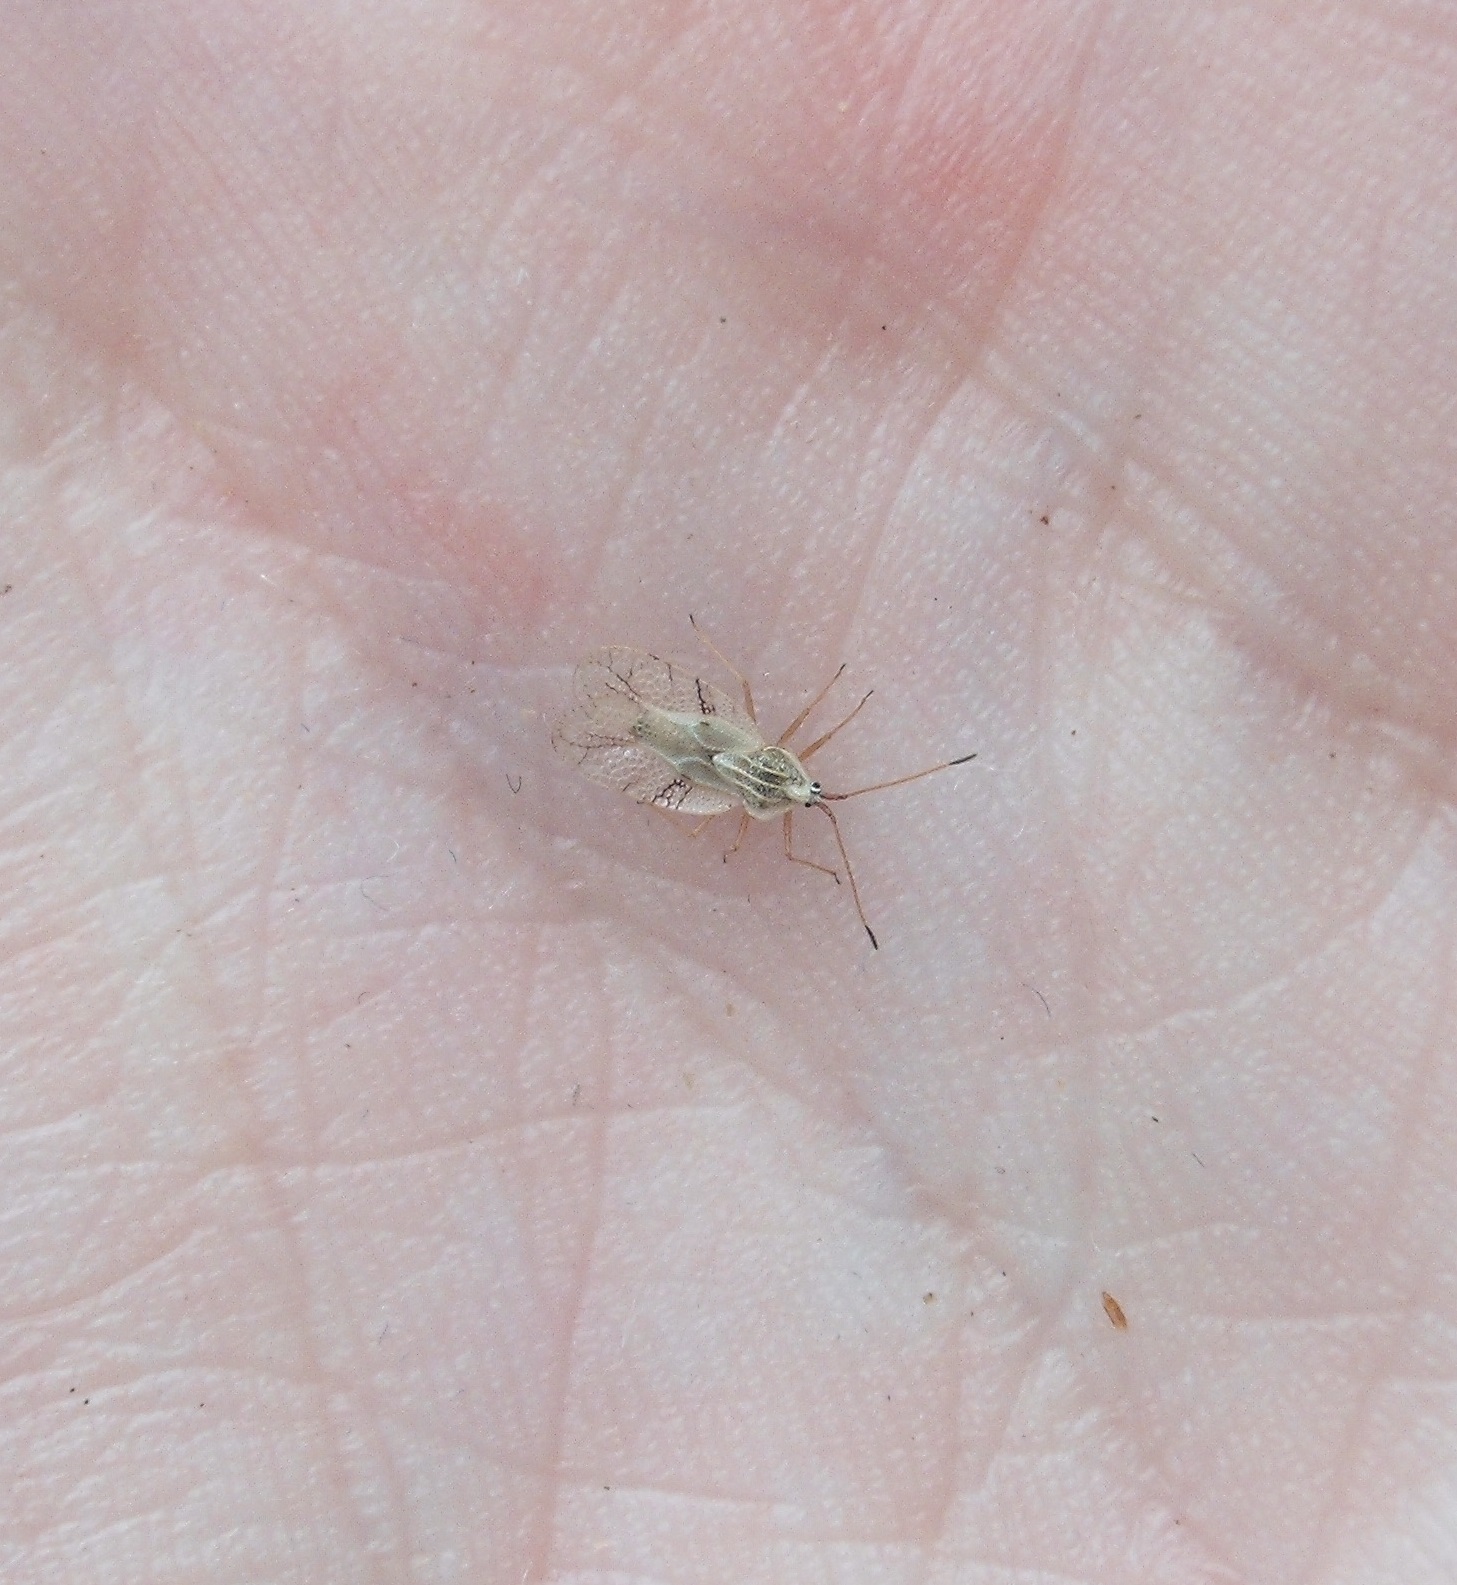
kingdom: Animalia
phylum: Arthropoda
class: Insecta
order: Hemiptera
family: Tingidae
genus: Gargaphia
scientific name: Gargaphia decoris
